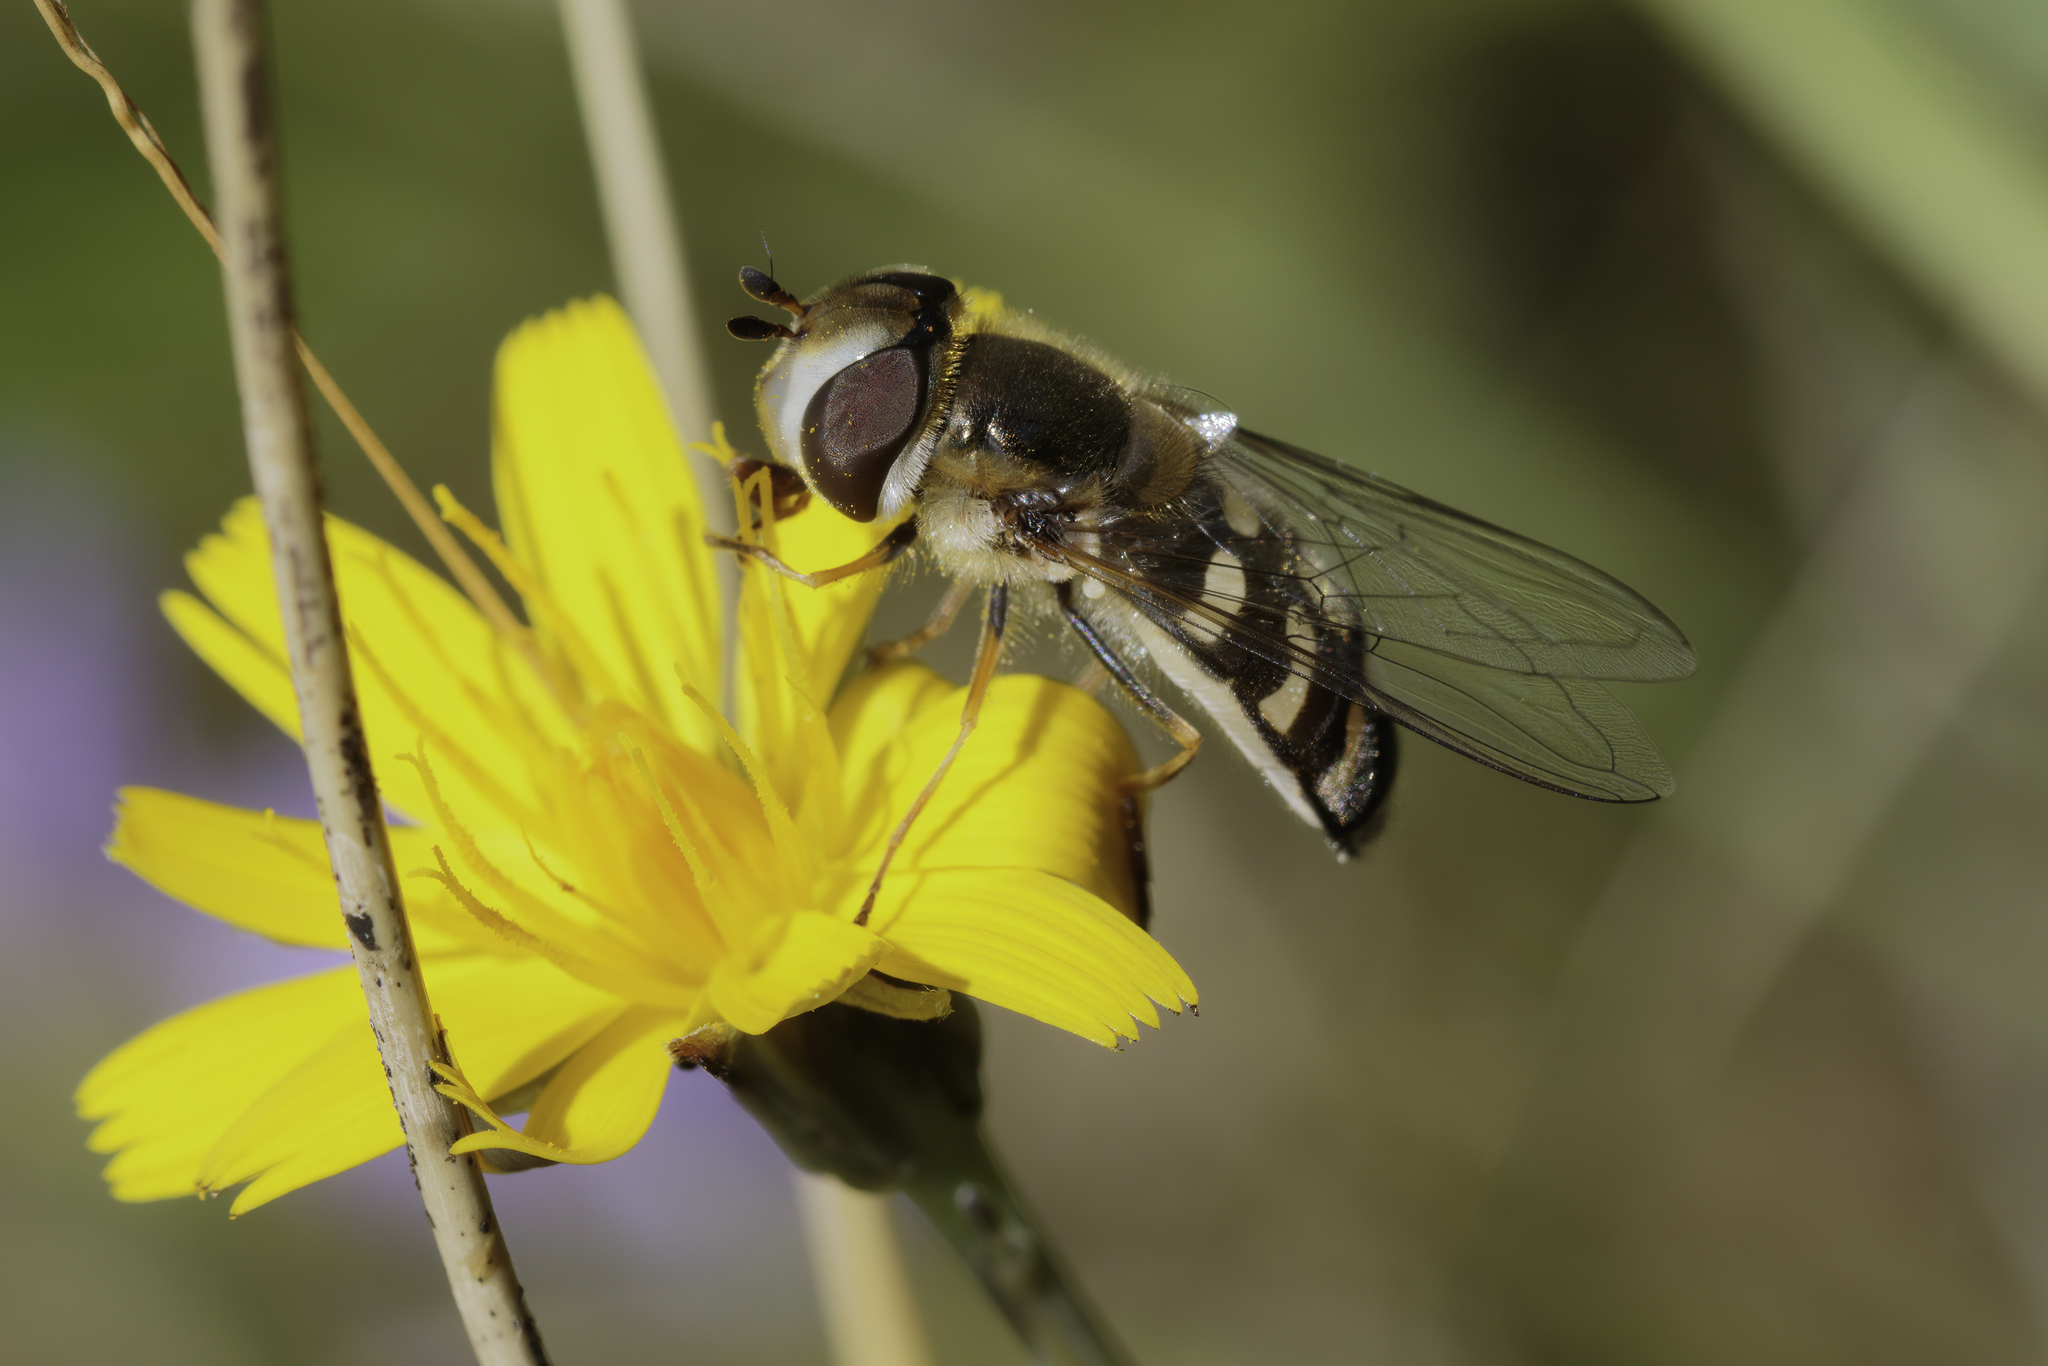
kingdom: Animalia
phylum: Arthropoda
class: Insecta
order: Diptera
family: Syrphidae
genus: Scaeva
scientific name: Scaeva pyrastri
